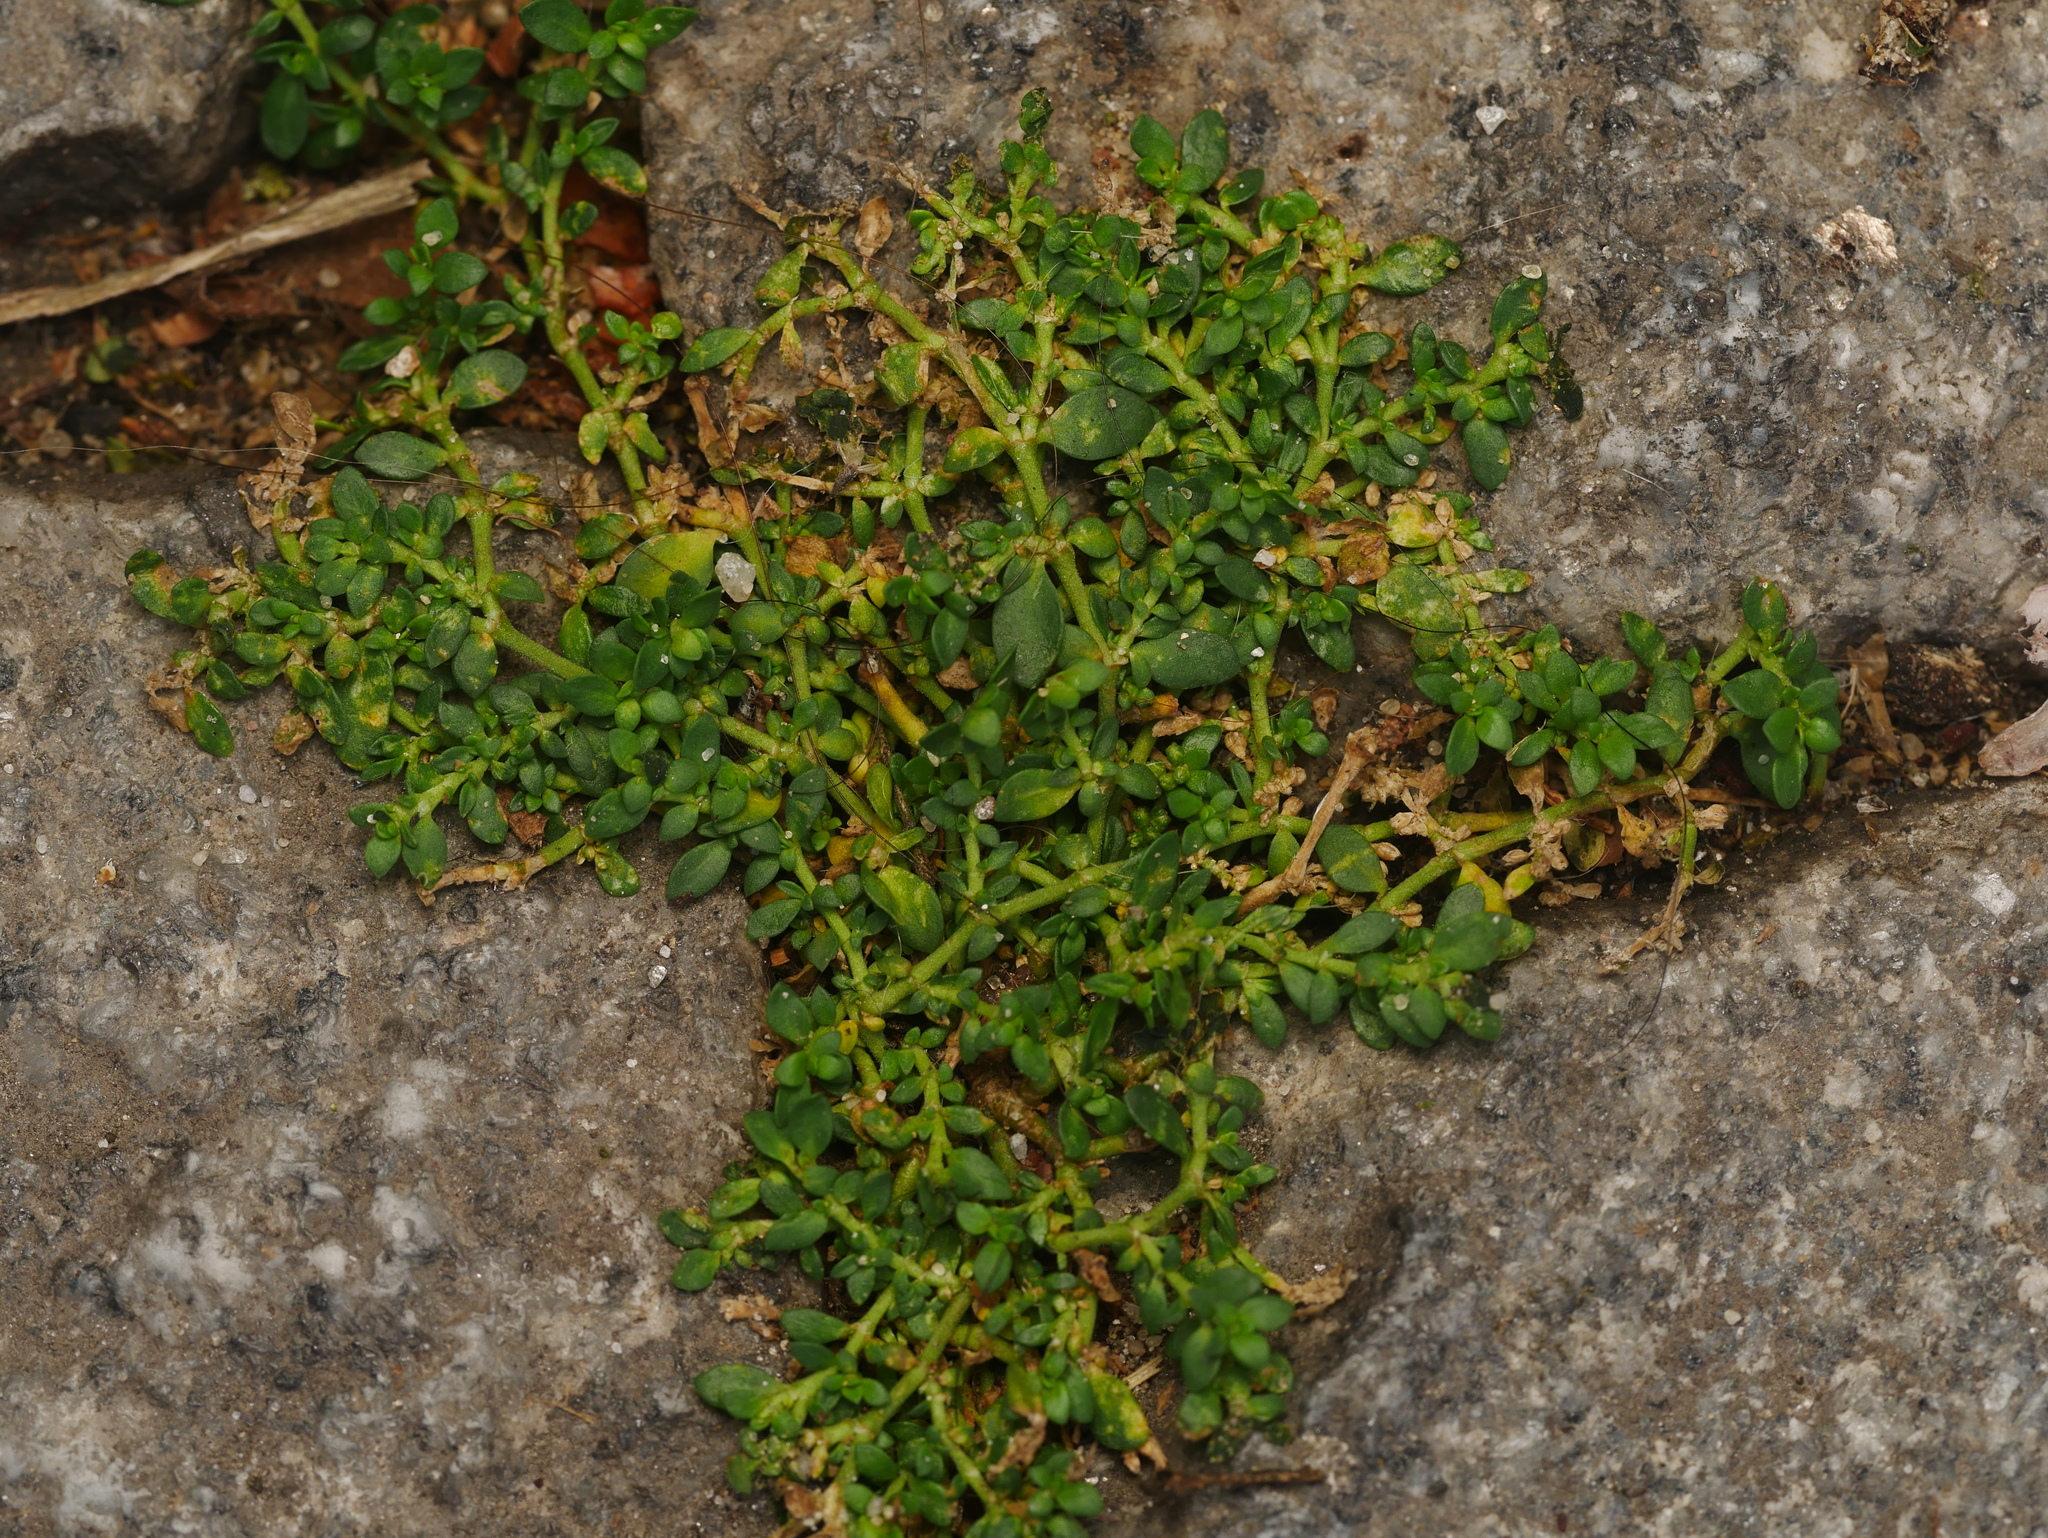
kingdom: Plantae
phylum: Tracheophyta
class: Magnoliopsida
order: Caryophyllales
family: Caryophyllaceae
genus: Herniaria
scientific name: Herniaria glabra
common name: Smooth rupturewort
